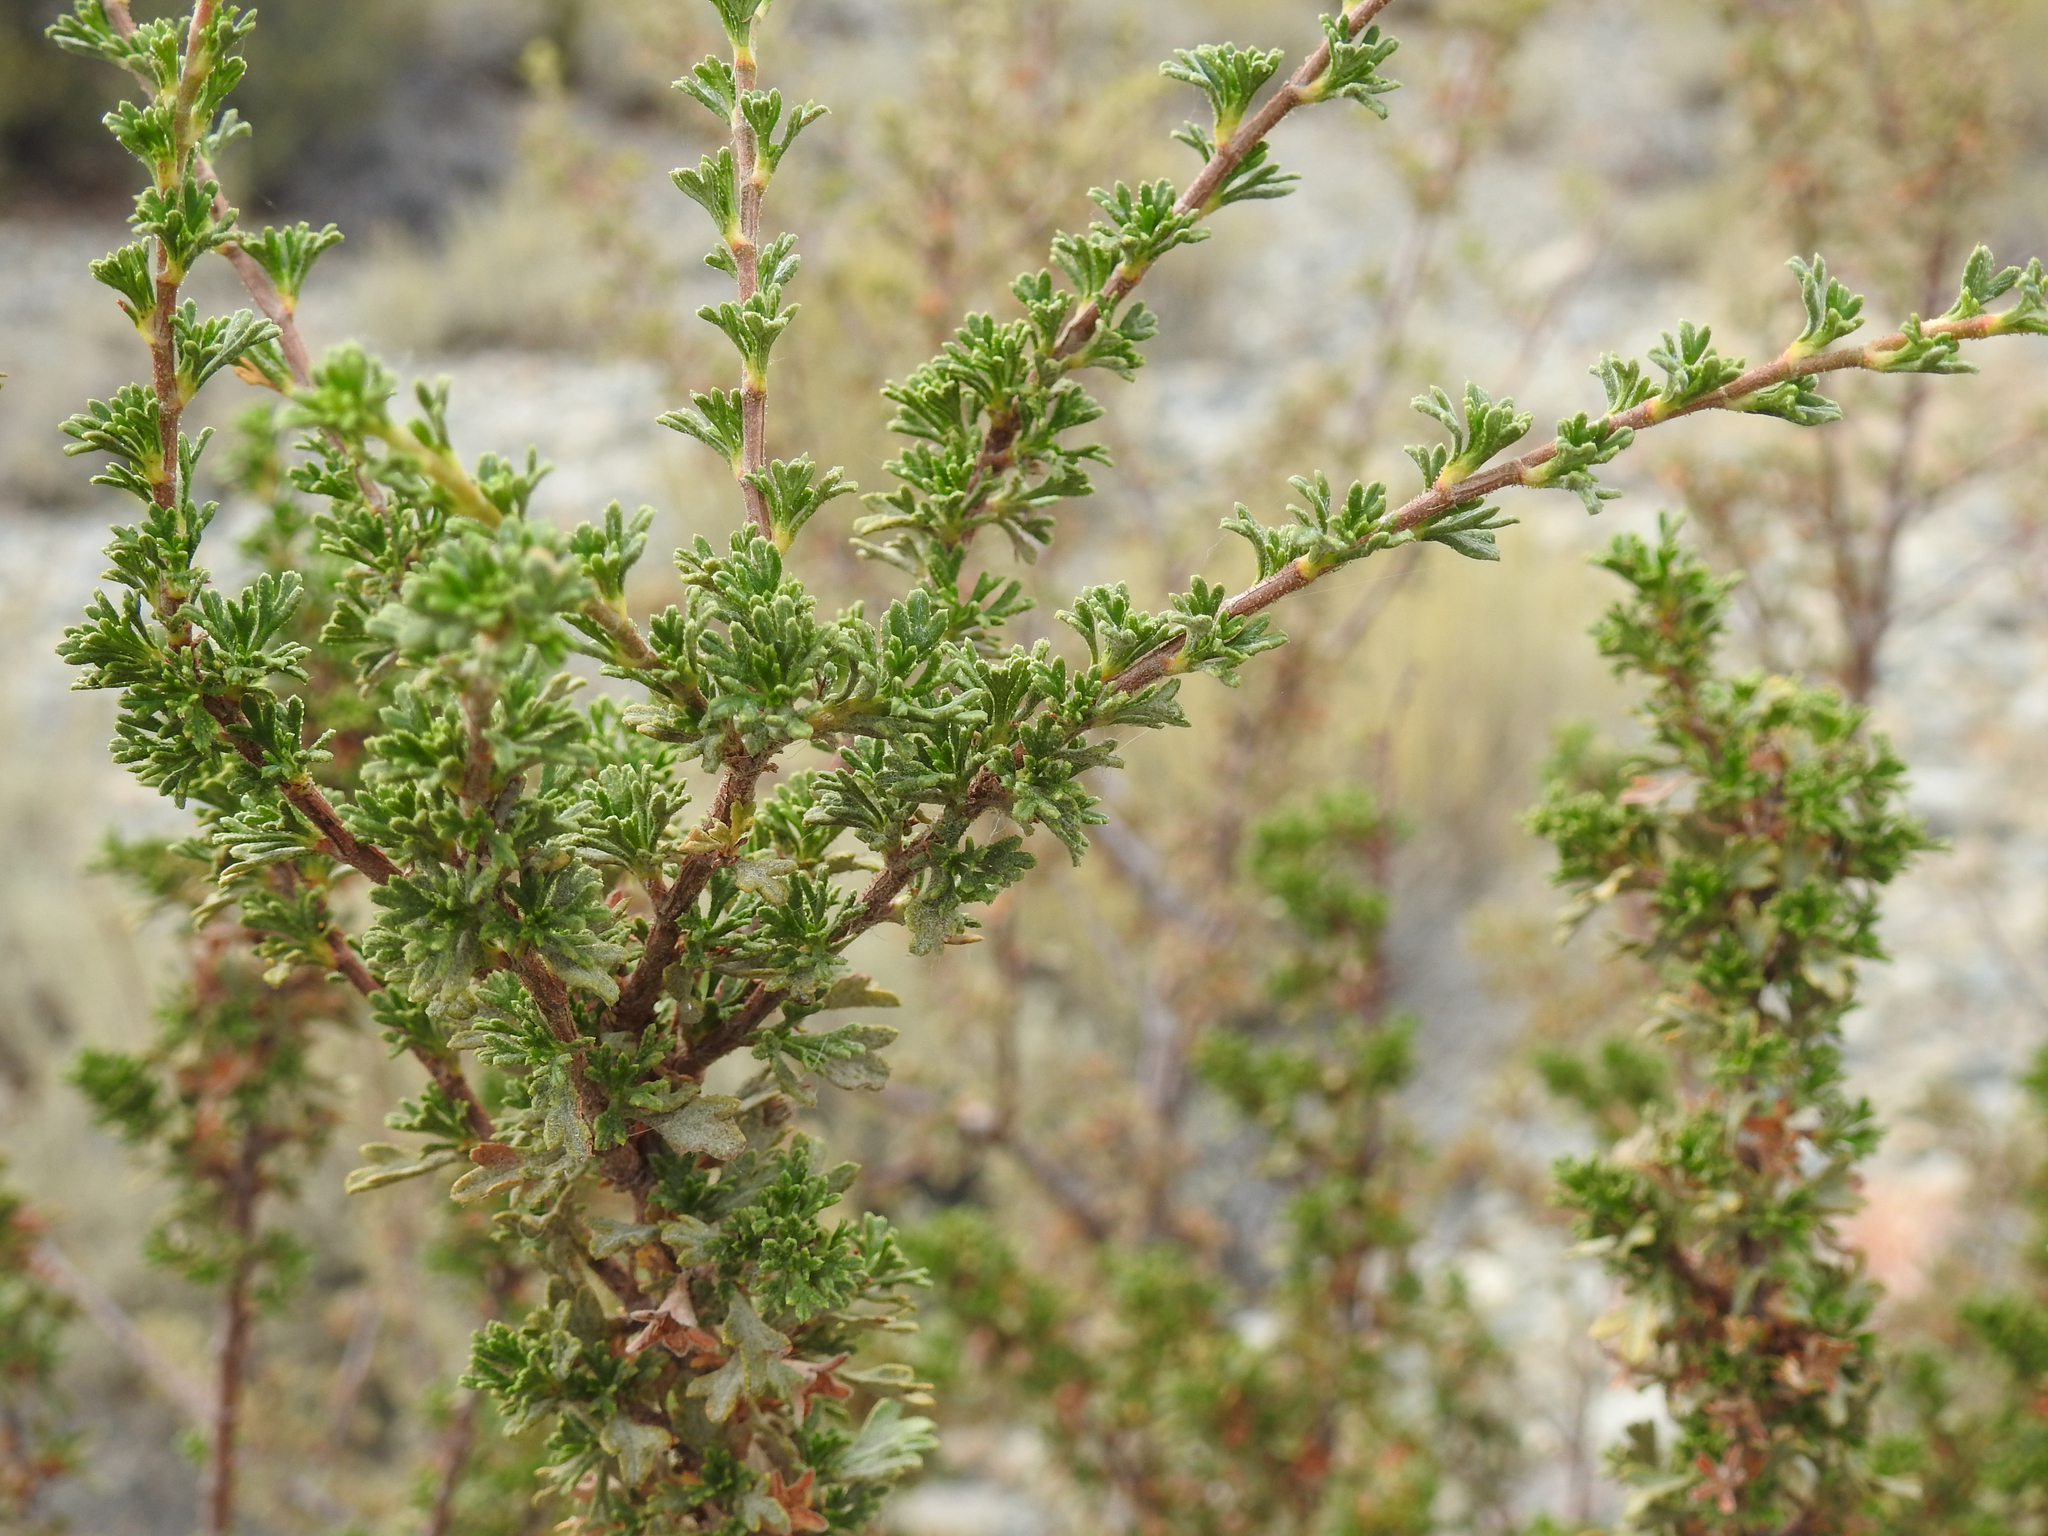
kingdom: Plantae
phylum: Tracheophyta
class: Magnoliopsida
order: Rosales
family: Rosaceae
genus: Purshia
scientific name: Purshia tridentata
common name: Antelope bitterbrush
